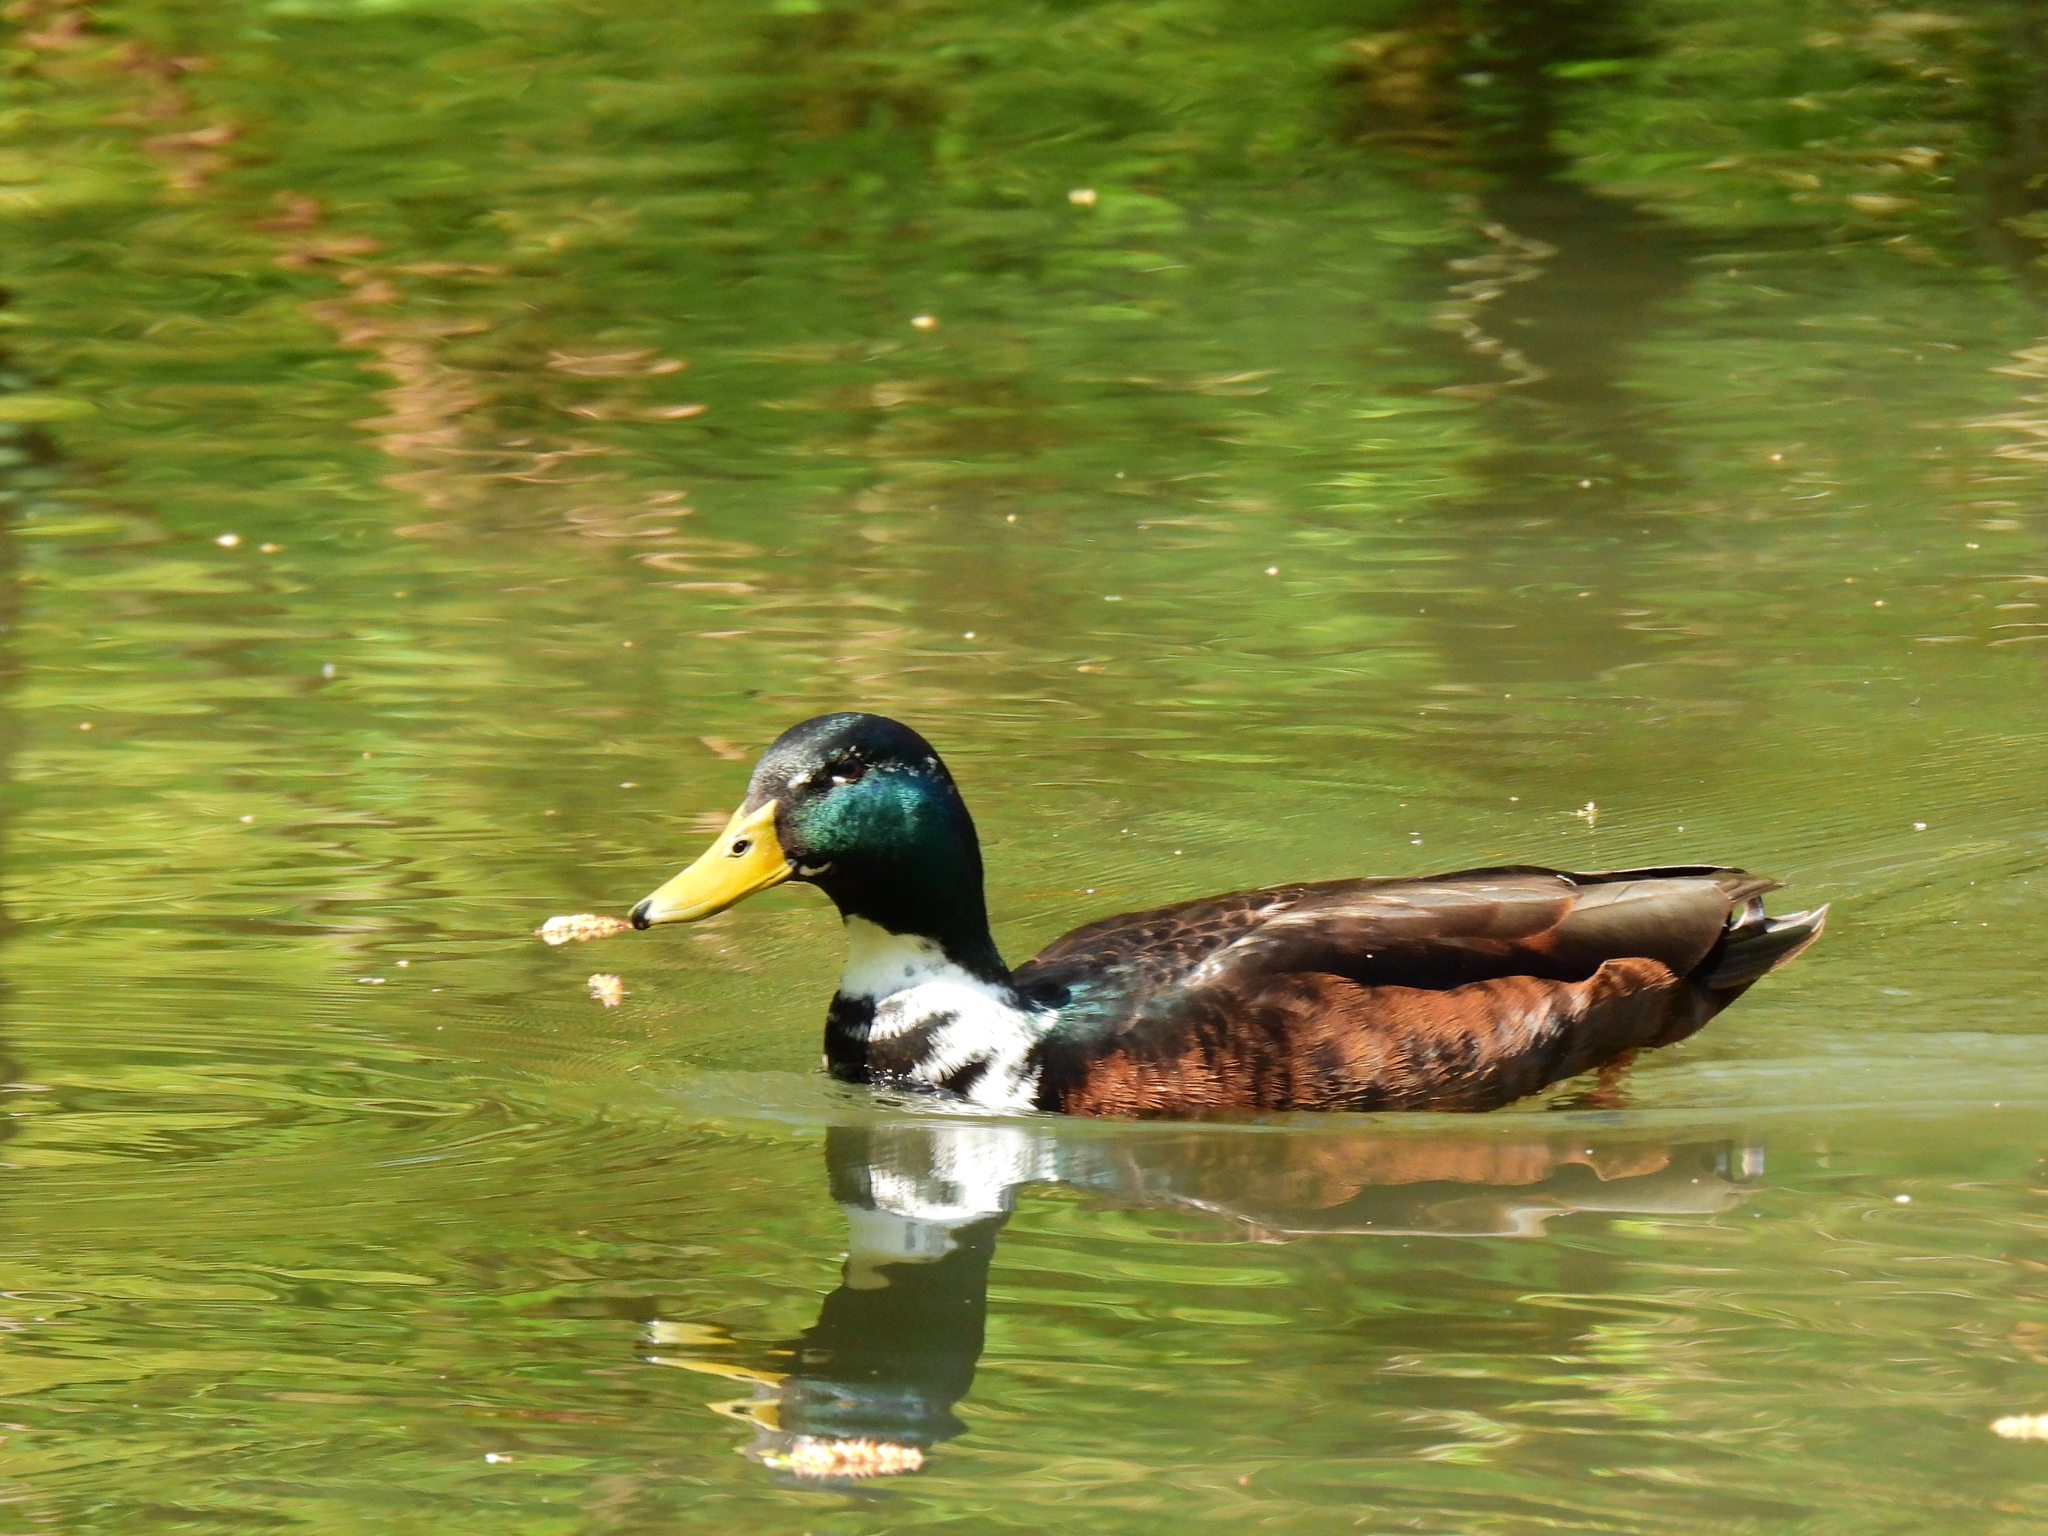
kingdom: Animalia
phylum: Chordata
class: Aves
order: Anseriformes
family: Anatidae
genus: Anas
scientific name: Anas platyrhynchos
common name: Mallard
